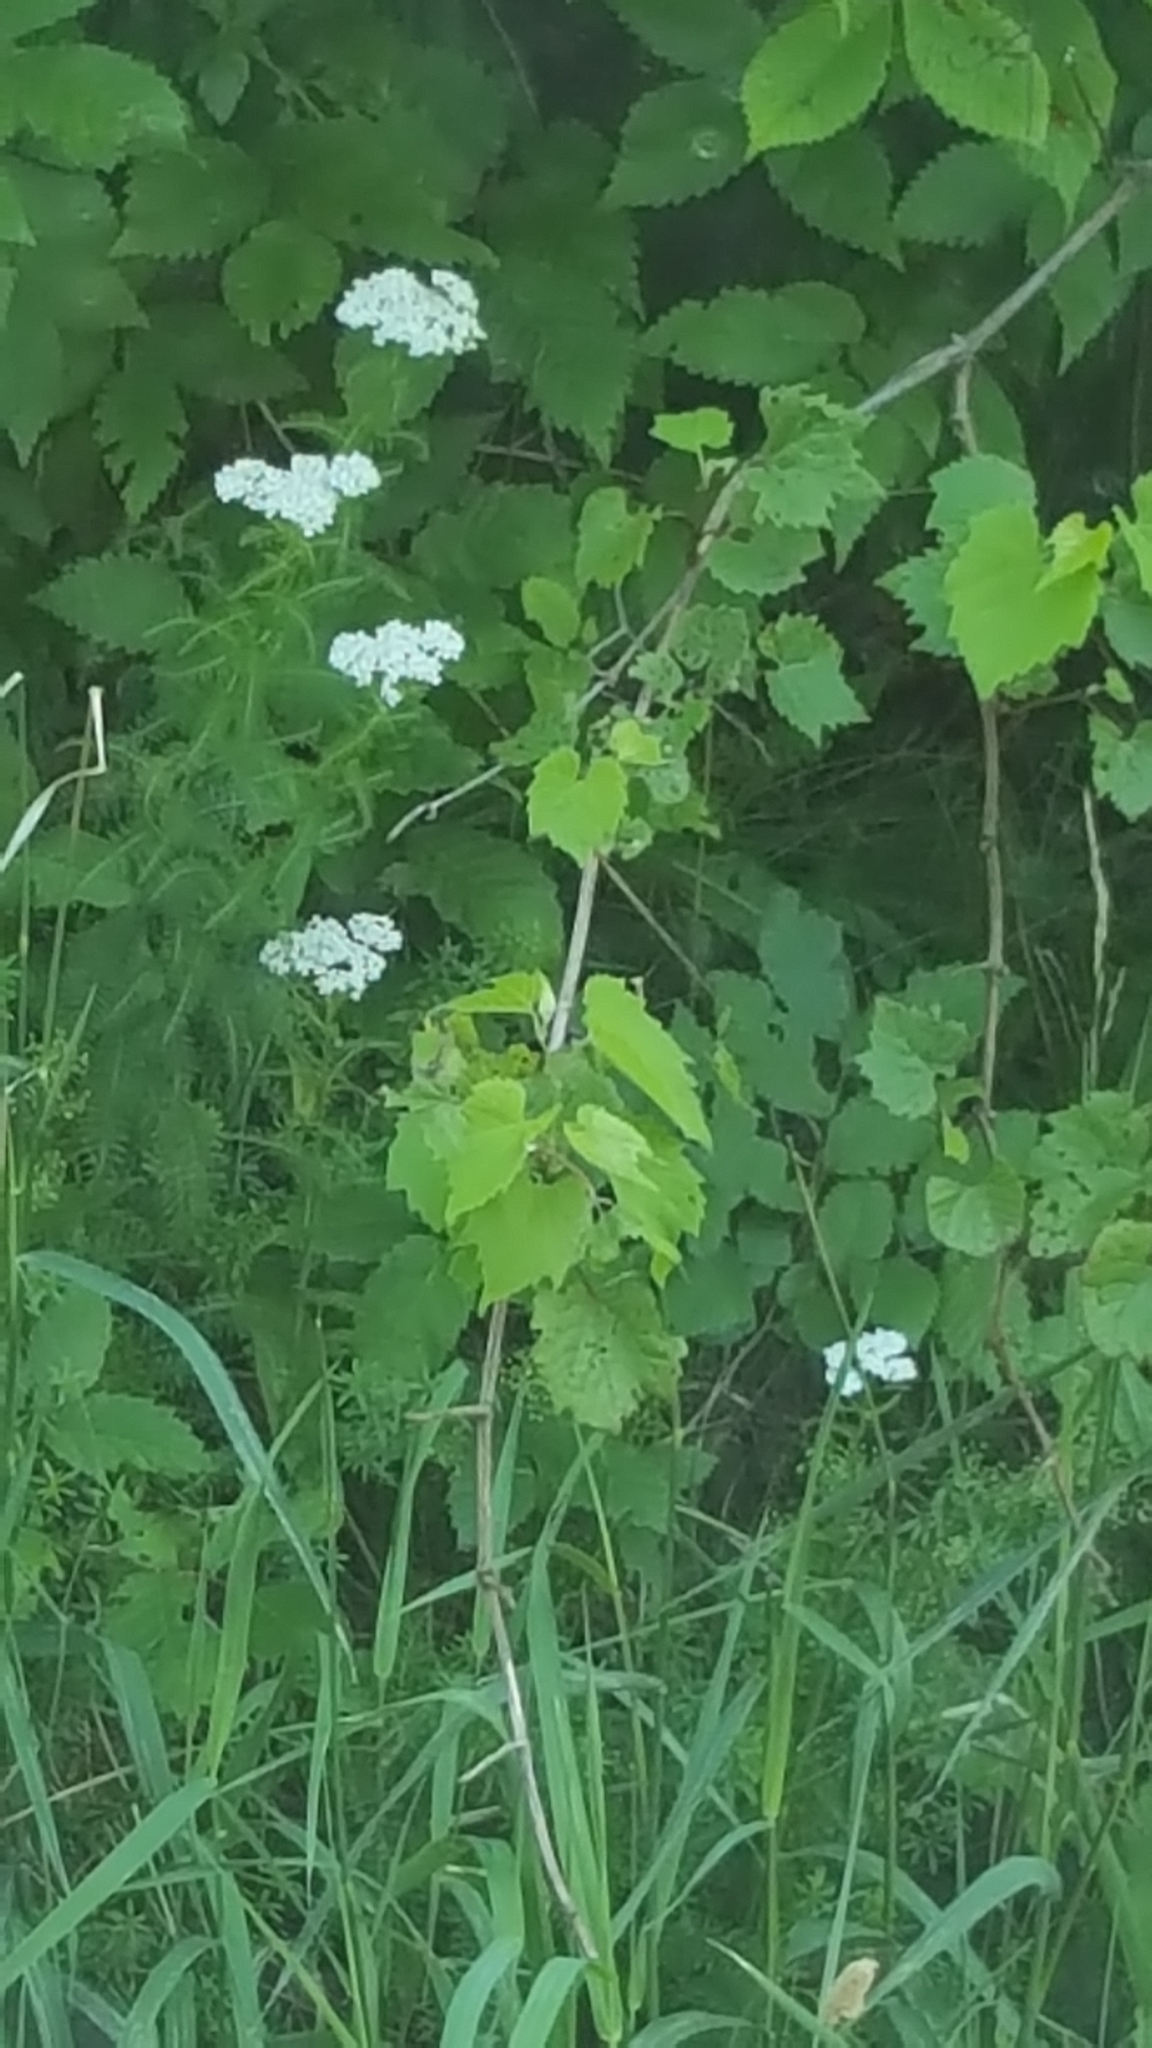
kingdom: Plantae
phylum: Tracheophyta
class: Magnoliopsida
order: Asterales
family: Asteraceae
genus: Achillea
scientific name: Achillea millefolium
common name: Yarrow
